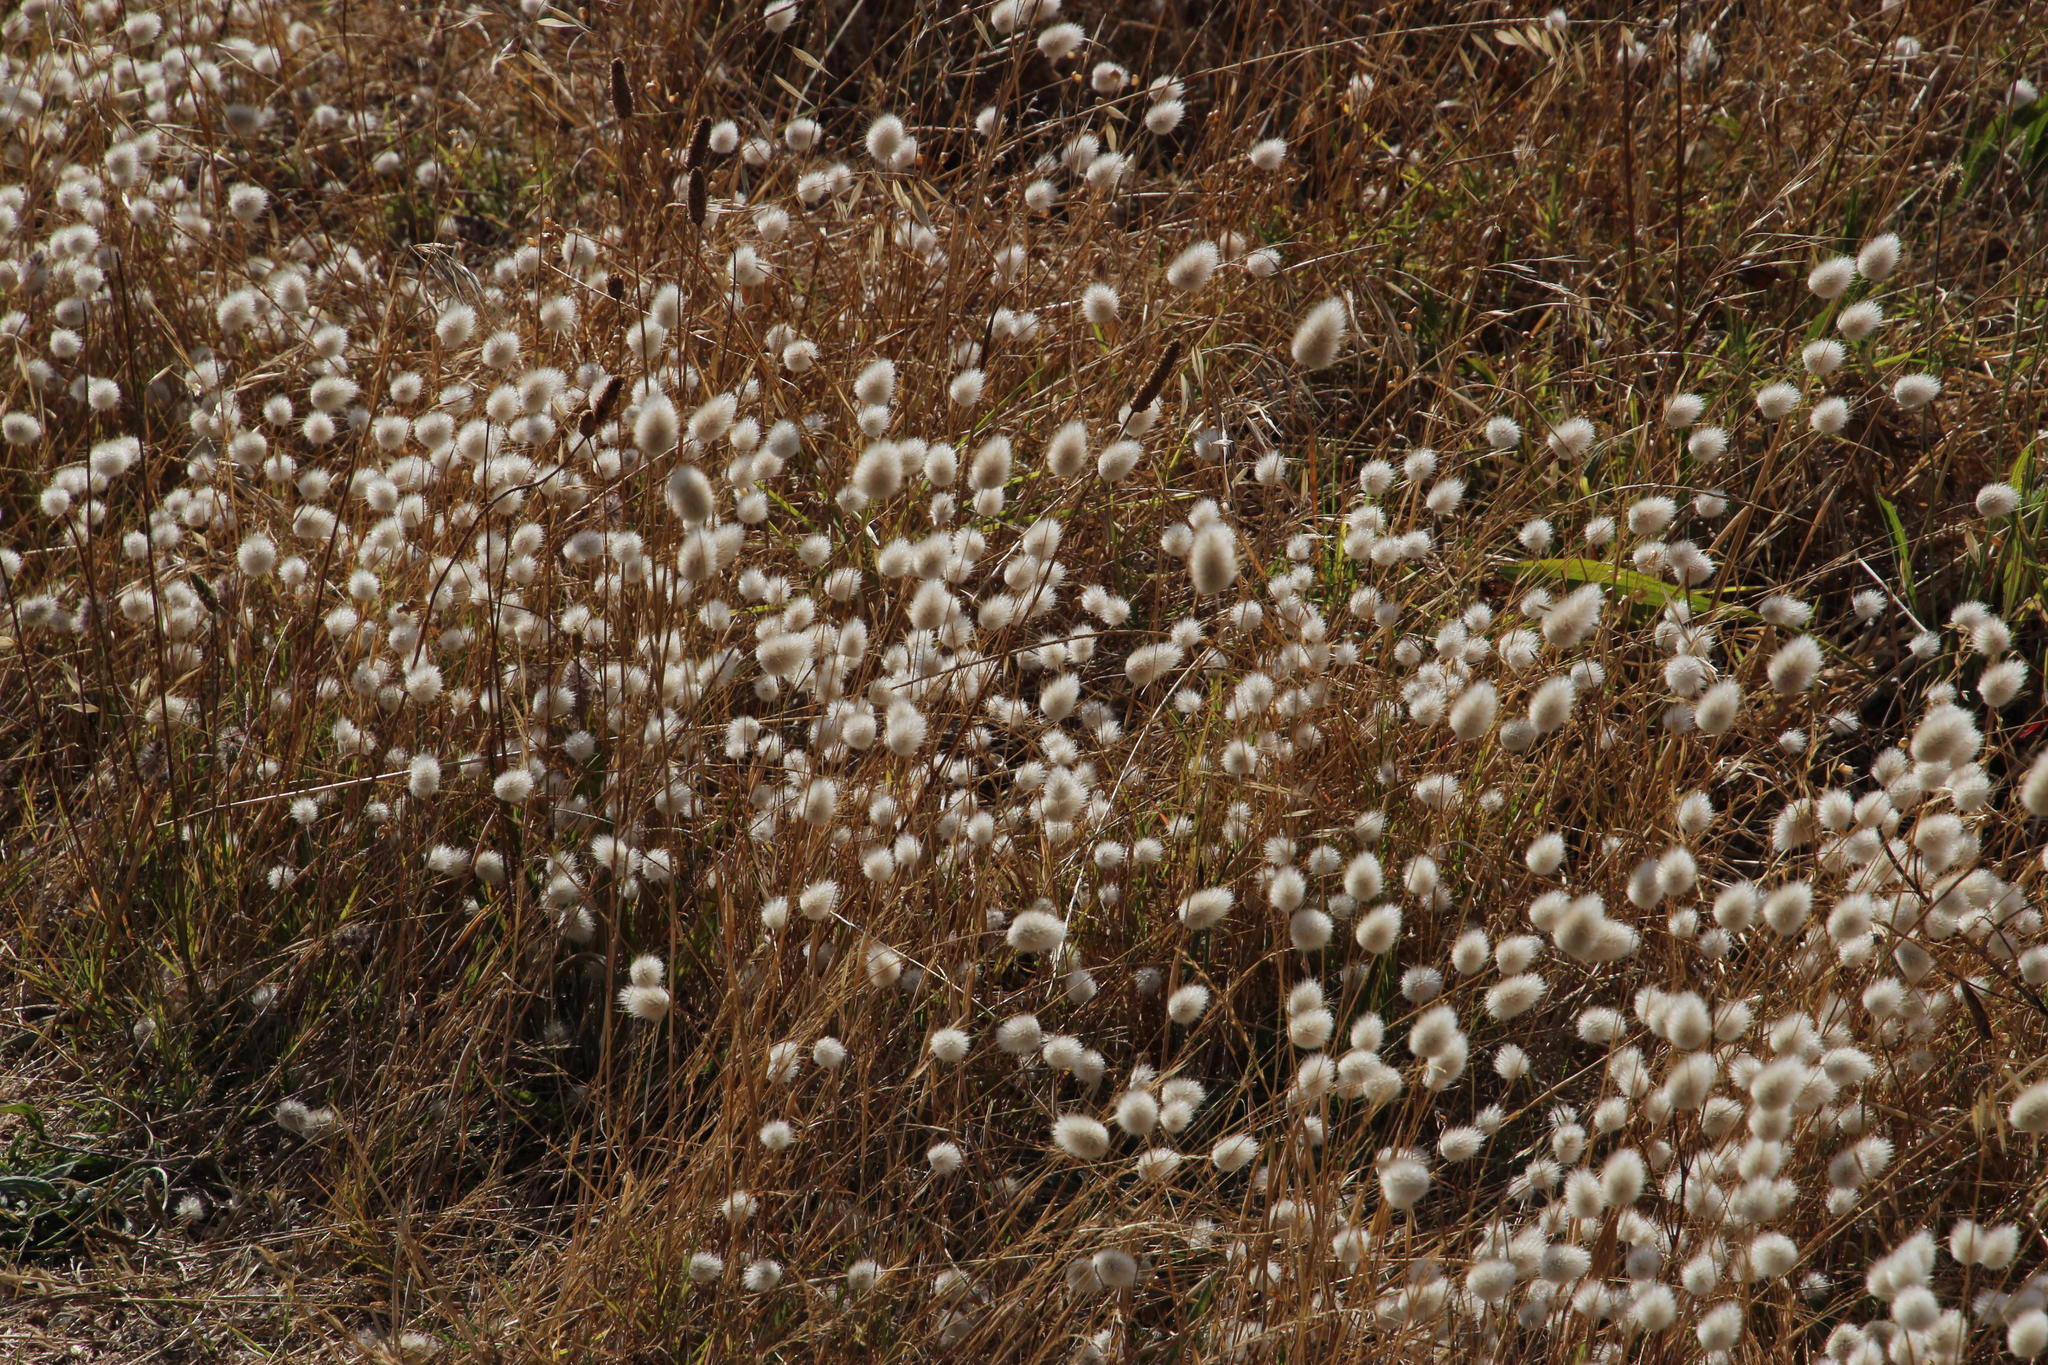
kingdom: Plantae
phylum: Tracheophyta
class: Liliopsida
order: Poales
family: Poaceae
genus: Lagurus
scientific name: Lagurus ovatus
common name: Hare's-tail
